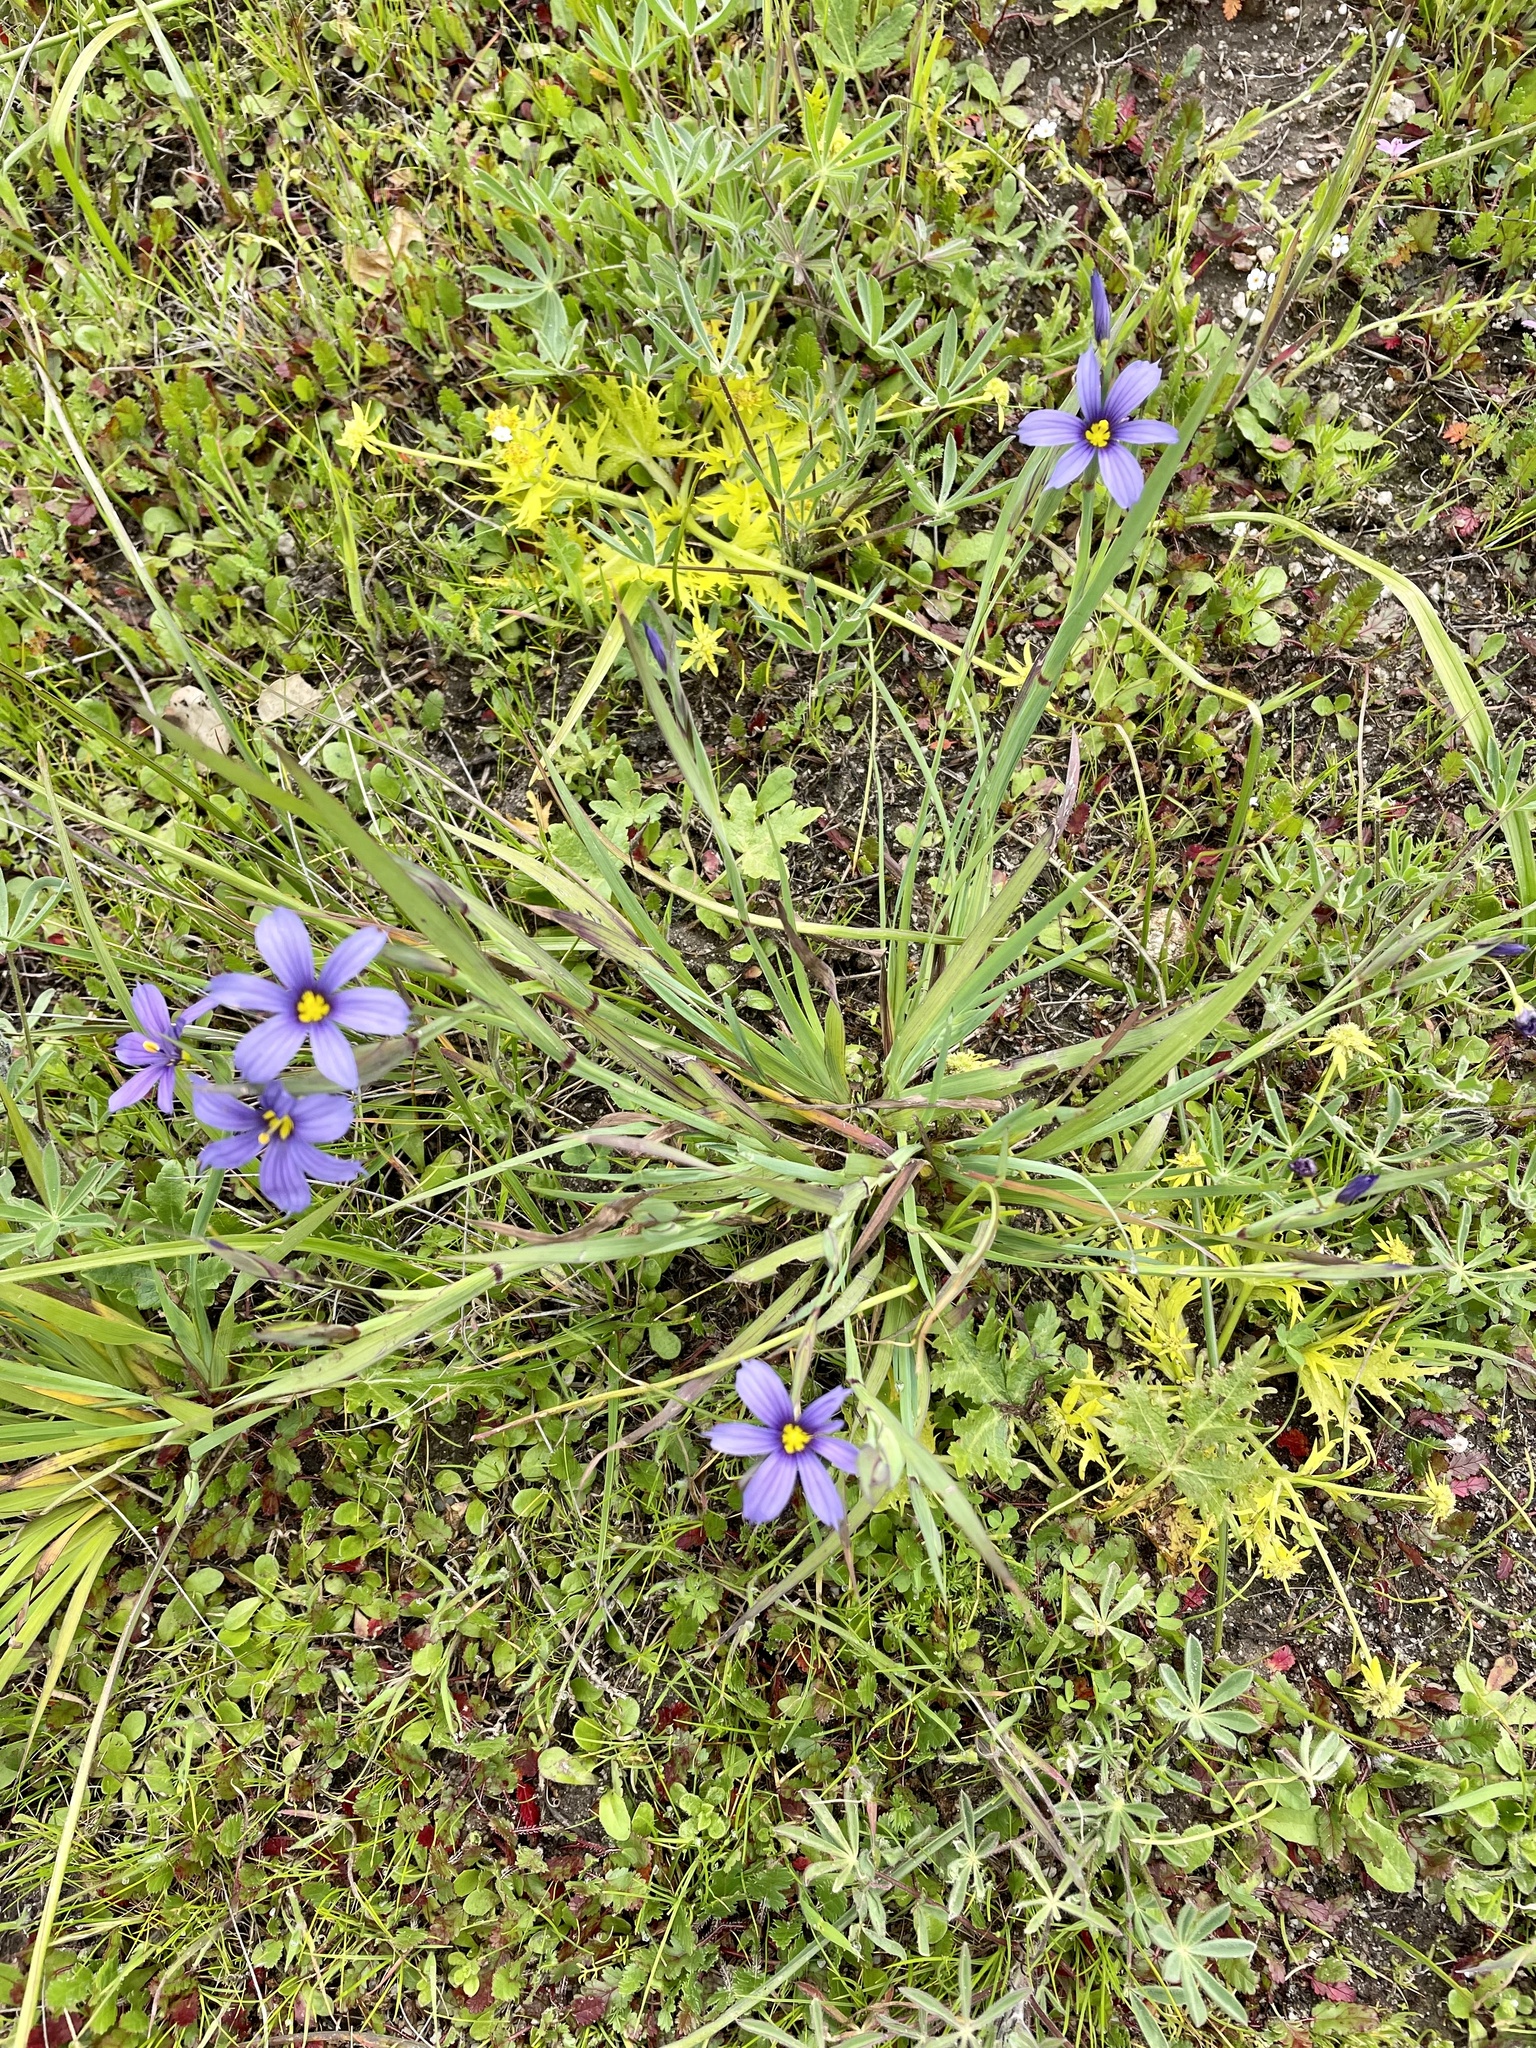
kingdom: Plantae
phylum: Tracheophyta
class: Liliopsida
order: Asparagales
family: Iridaceae
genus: Sisyrinchium
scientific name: Sisyrinchium bellum
